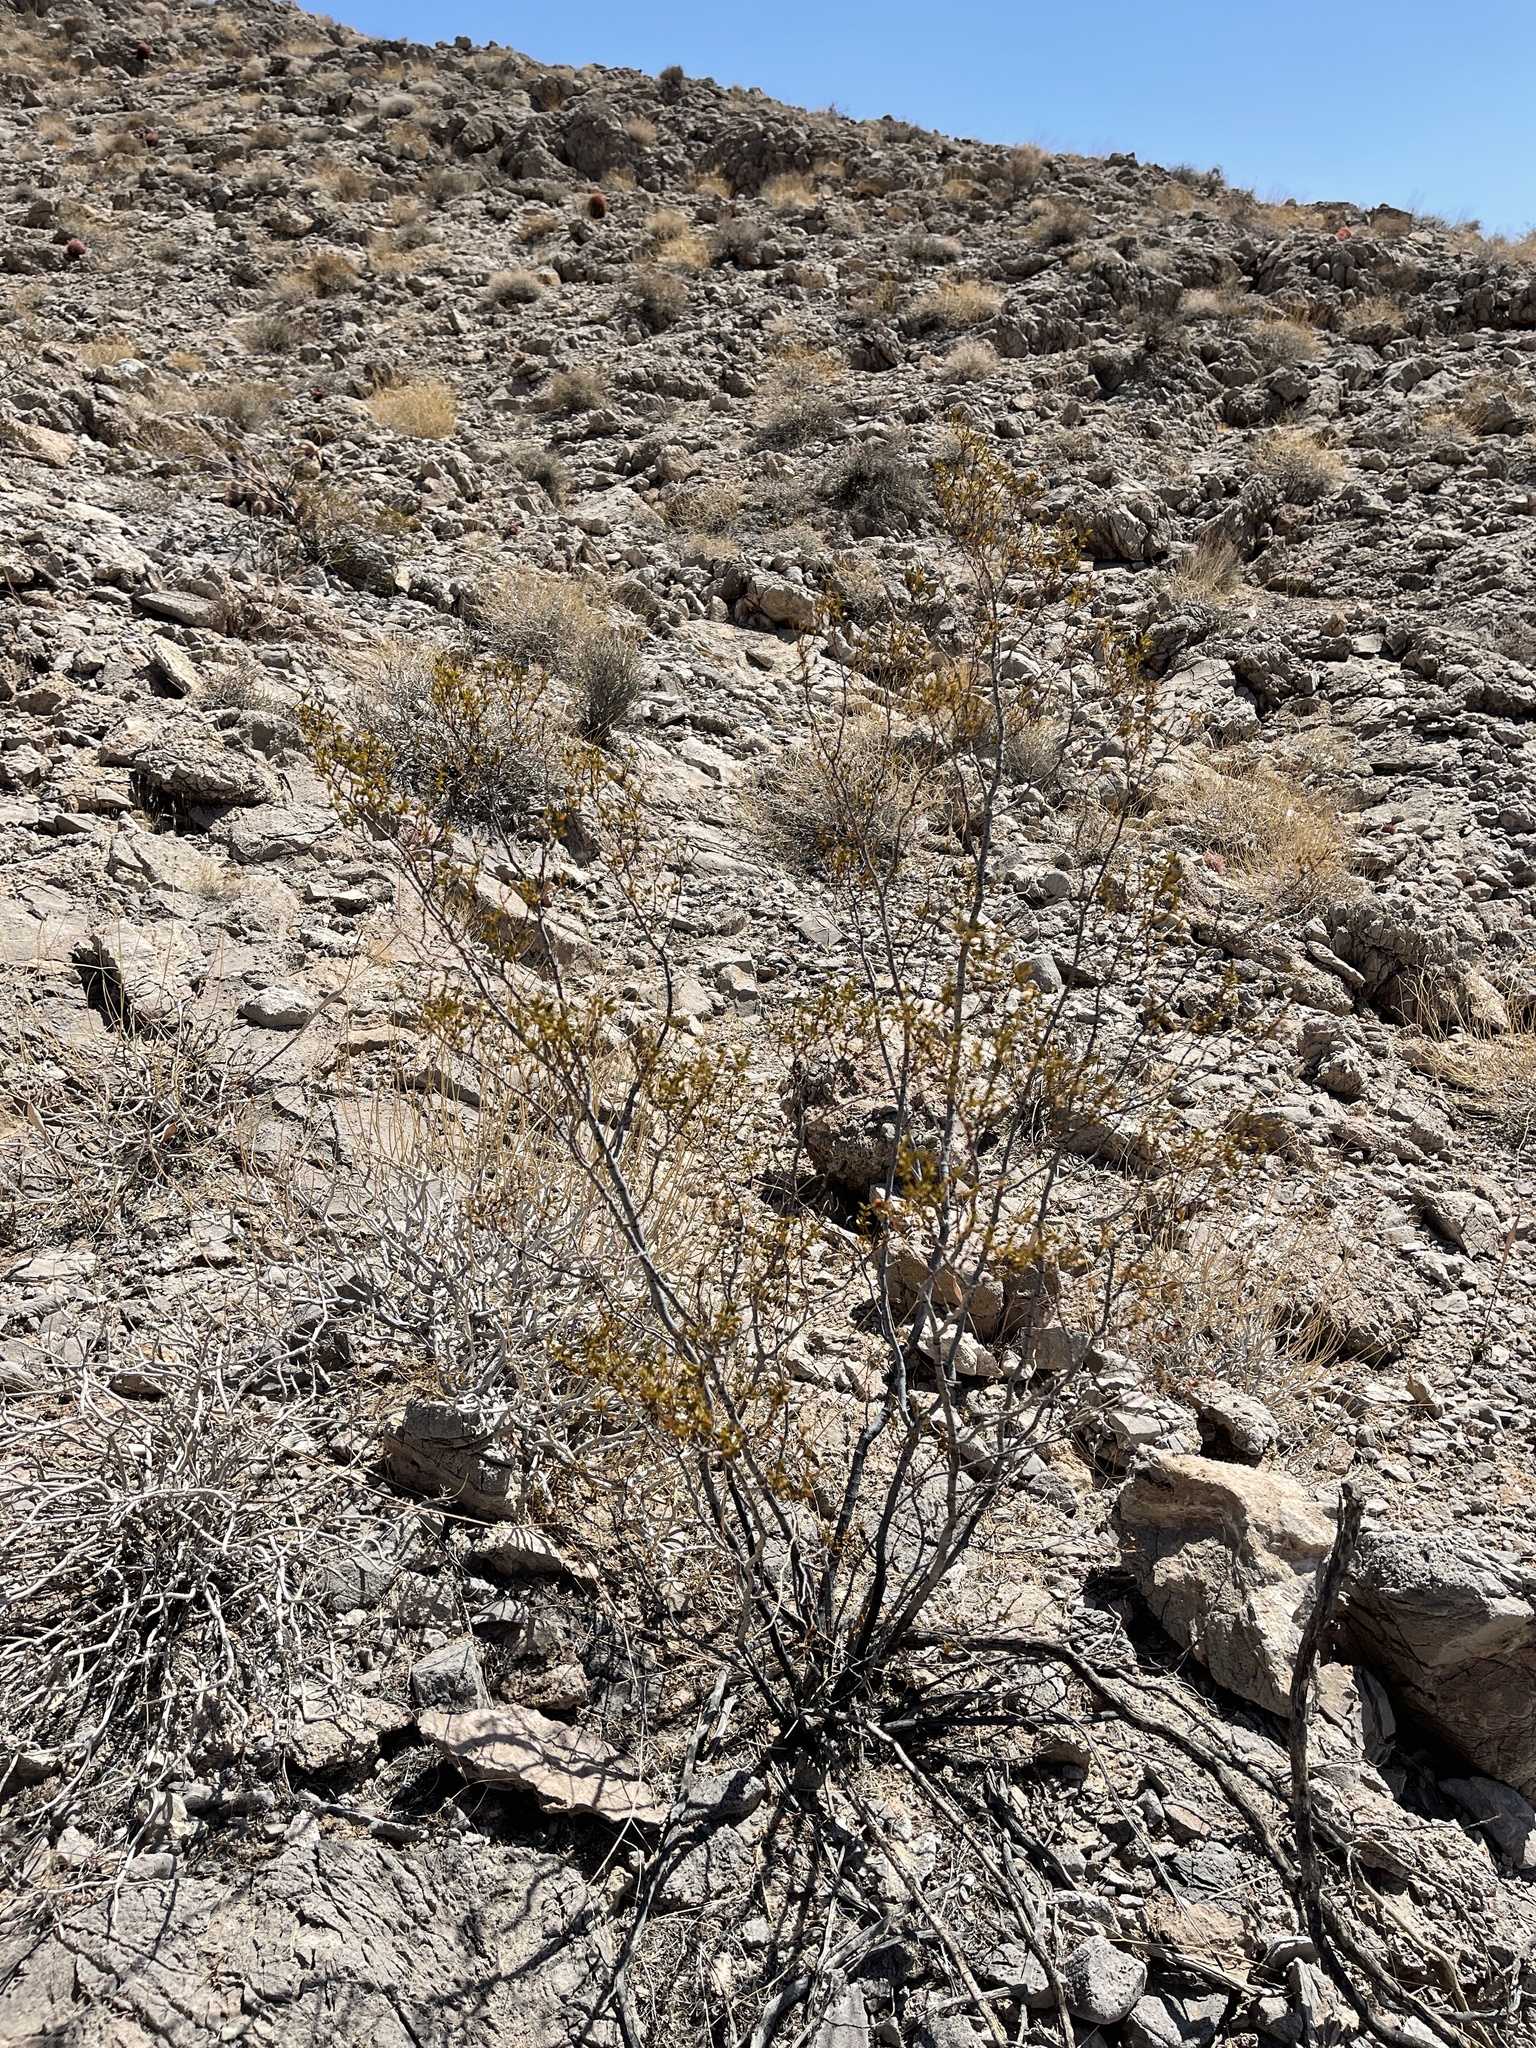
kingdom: Plantae
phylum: Tracheophyta
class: Magnoliopsida
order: Zygophyllales
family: Zygophyllaceae
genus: Larrea
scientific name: Larrea tridentata
